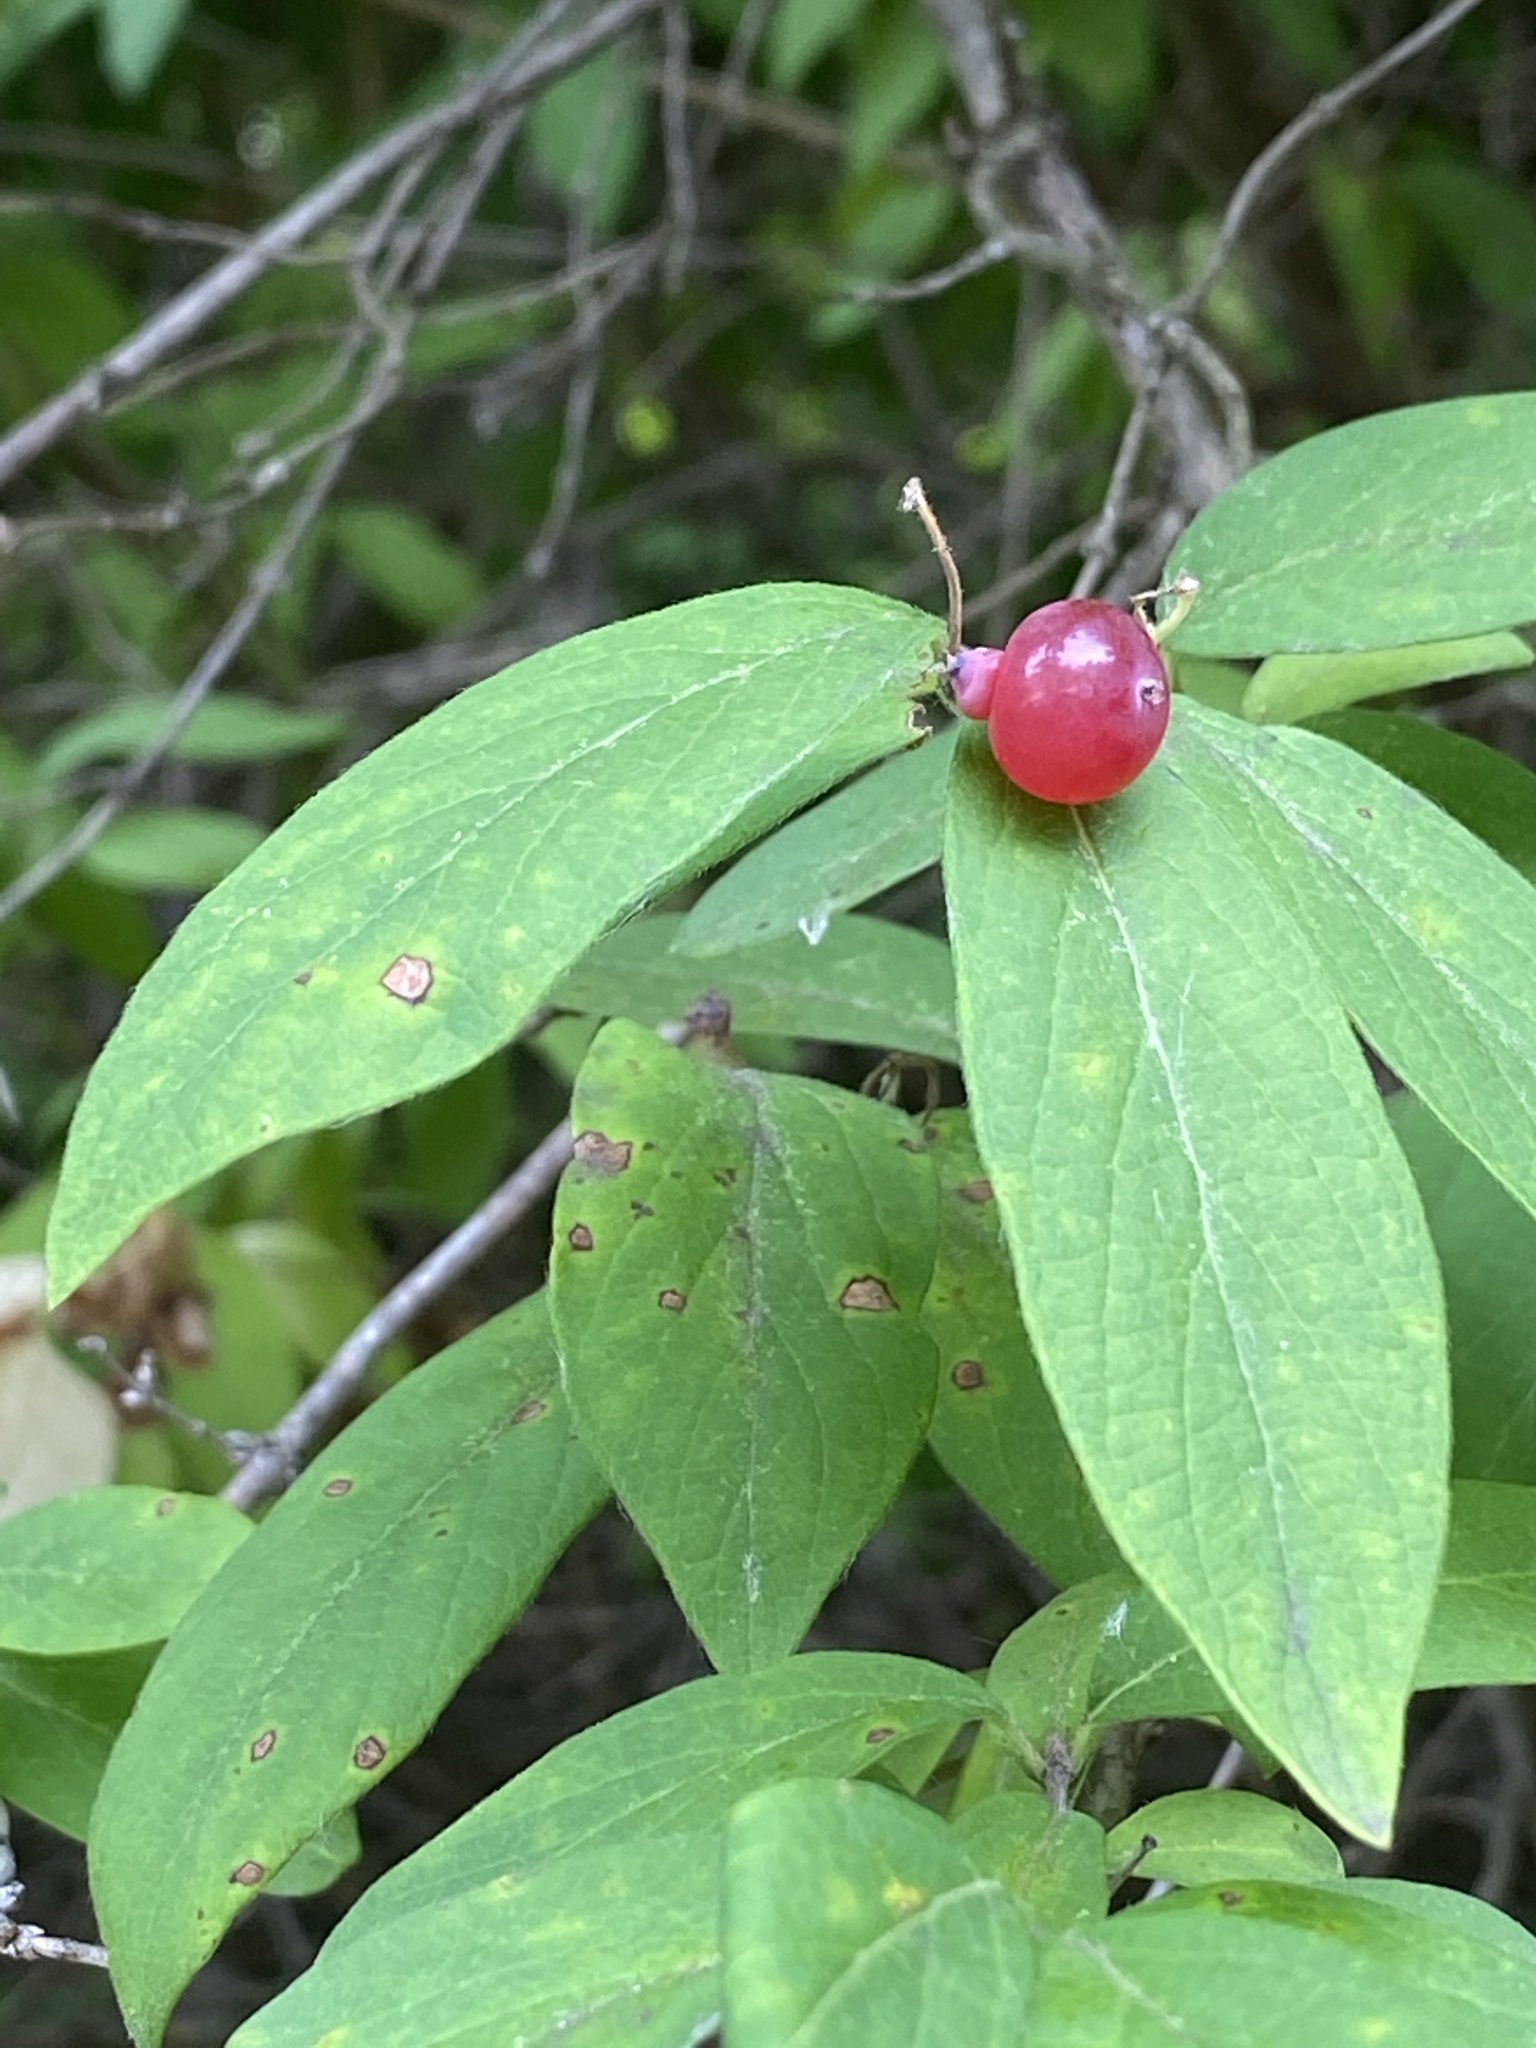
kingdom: Plantae
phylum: Tracheophyta
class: Magnoliopsida
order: Dipsacales
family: Caprifoliaceae
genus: Lonicera
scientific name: Lonicera
